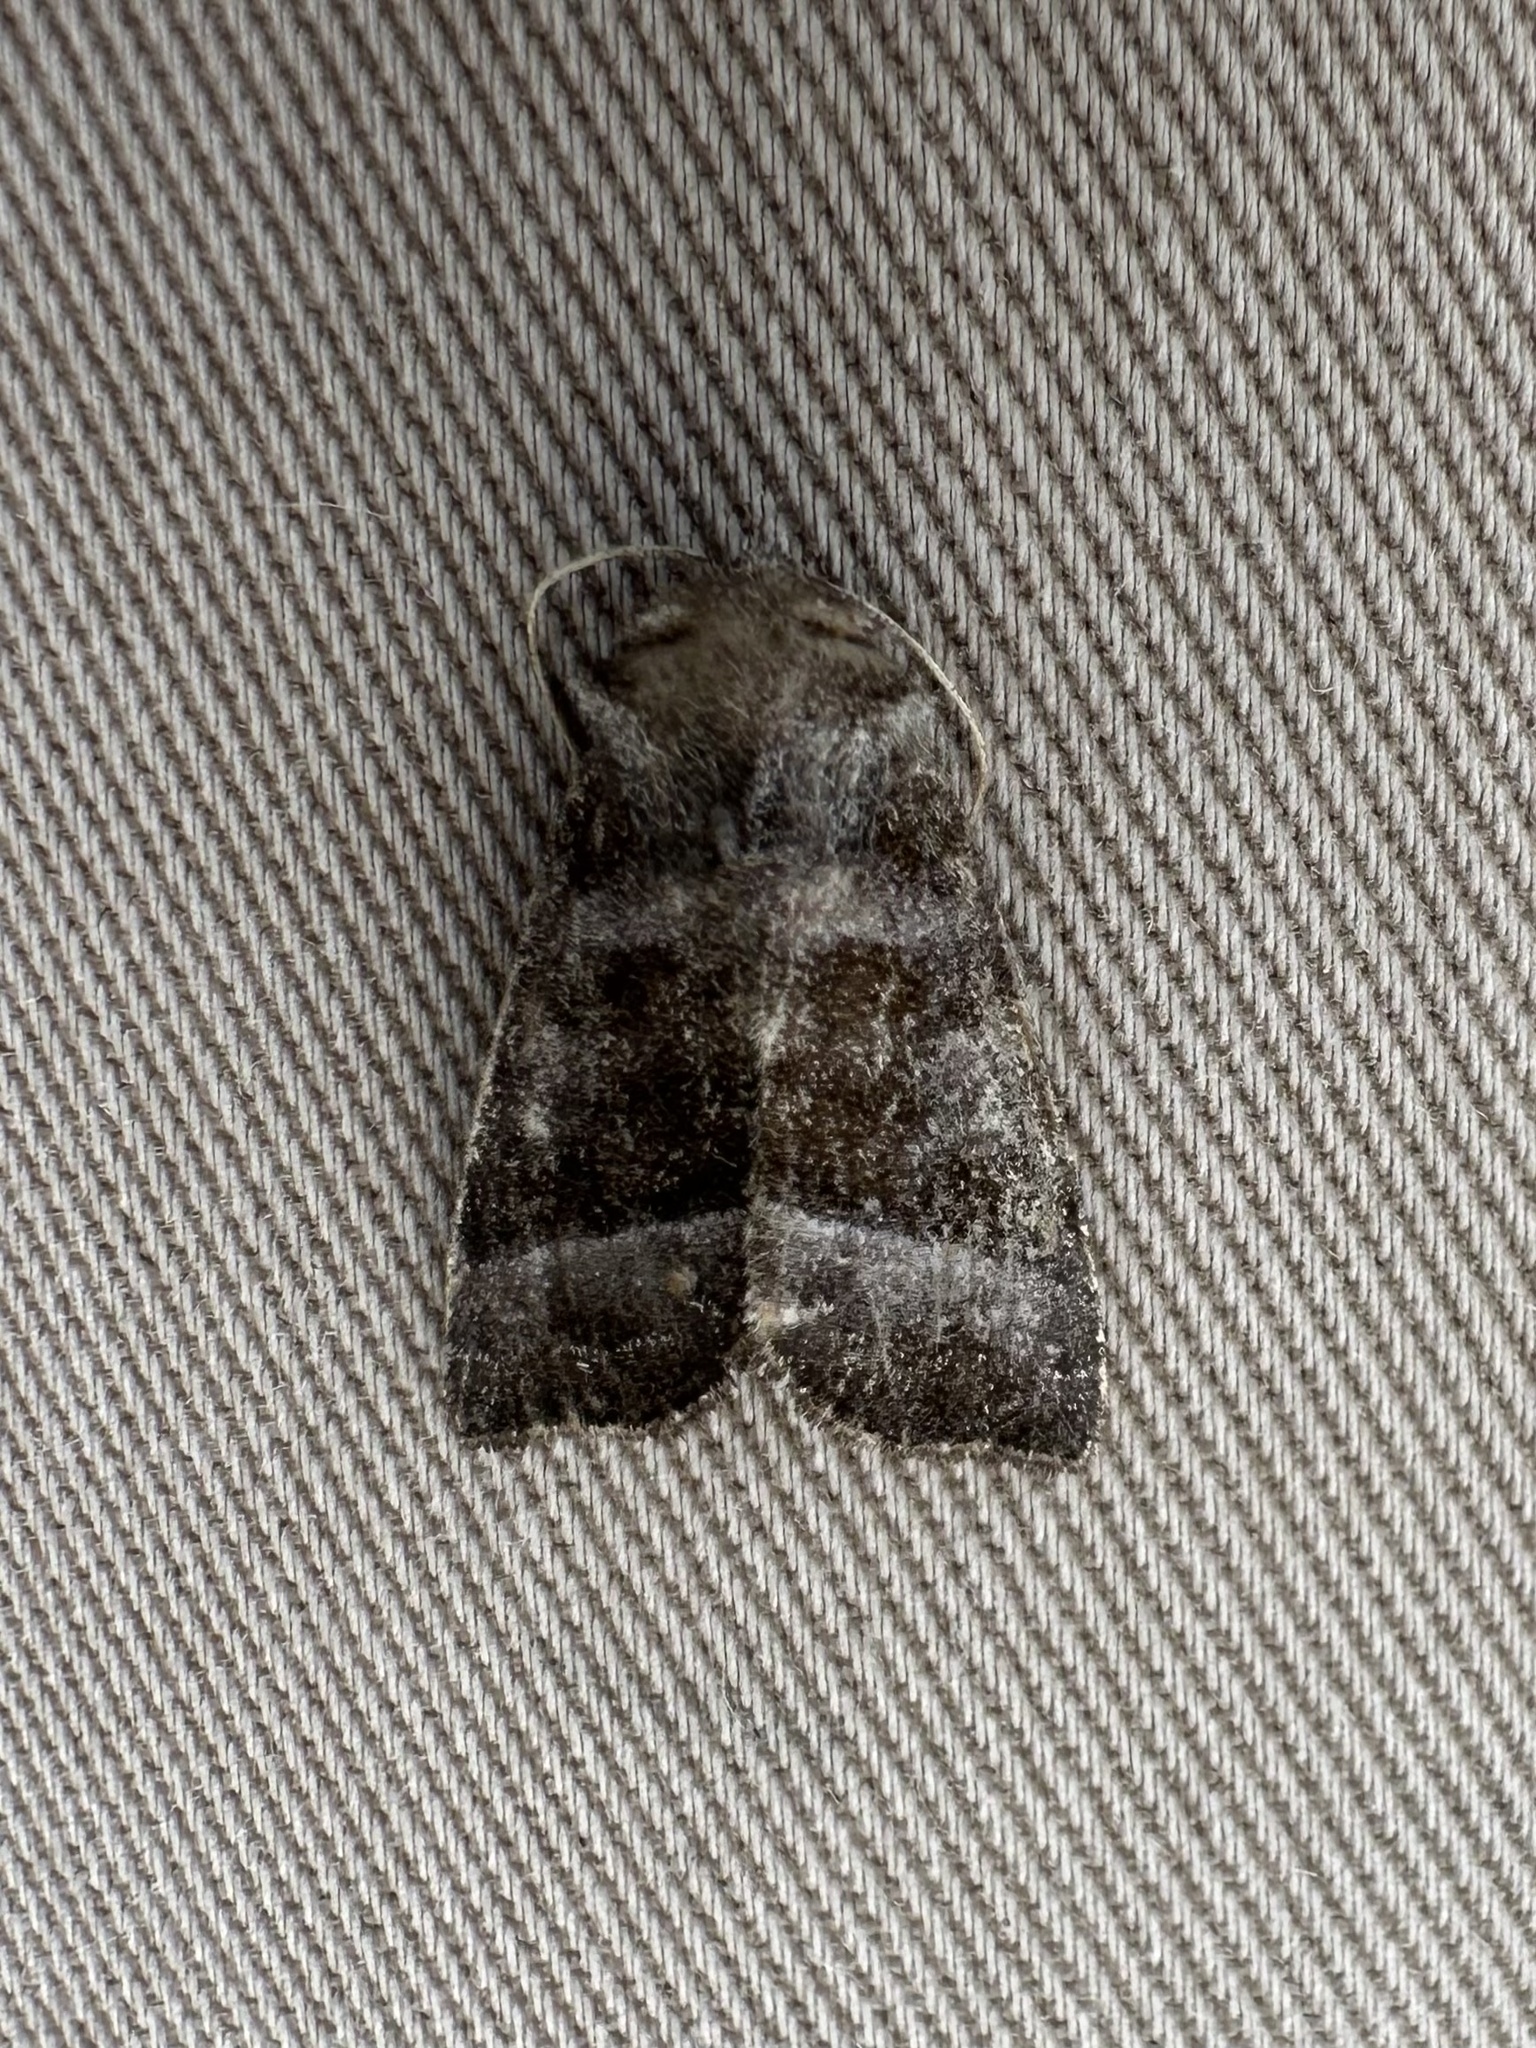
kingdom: Animalia
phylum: Arthropoda
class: Insecta
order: Lepidoptera
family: Noctuidae
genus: Papaipema
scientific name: Papaipema eupatorii
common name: Eupatorium borer moth
